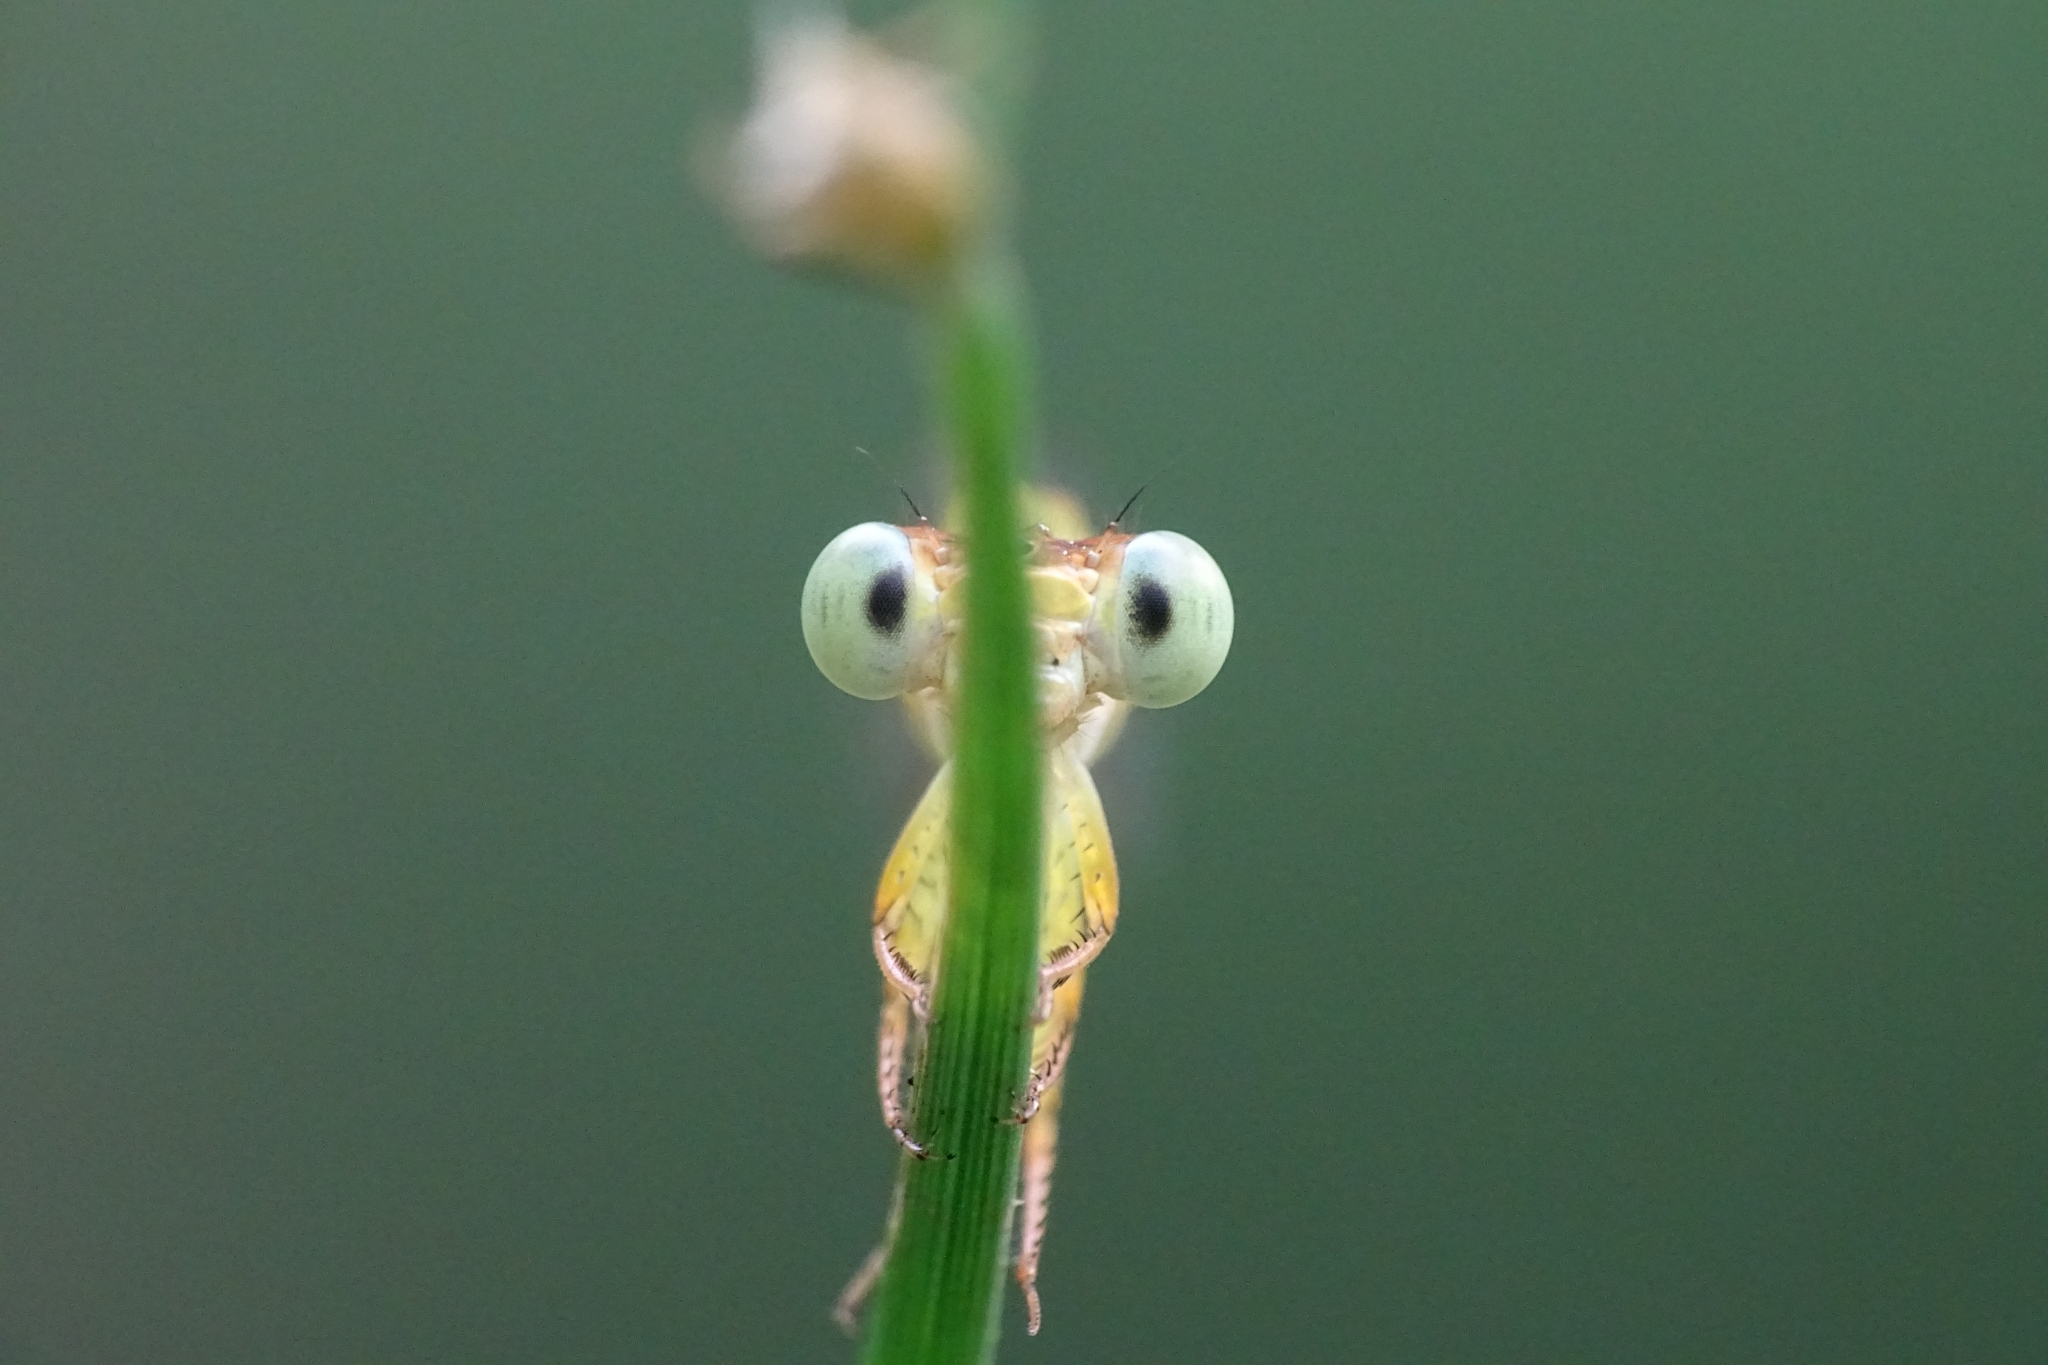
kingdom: Animalia
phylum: Arthropoda
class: Insecta
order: Odonata
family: Coenagrionidae
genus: Ceriagrion
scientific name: Ceriagrion coromandelianum
